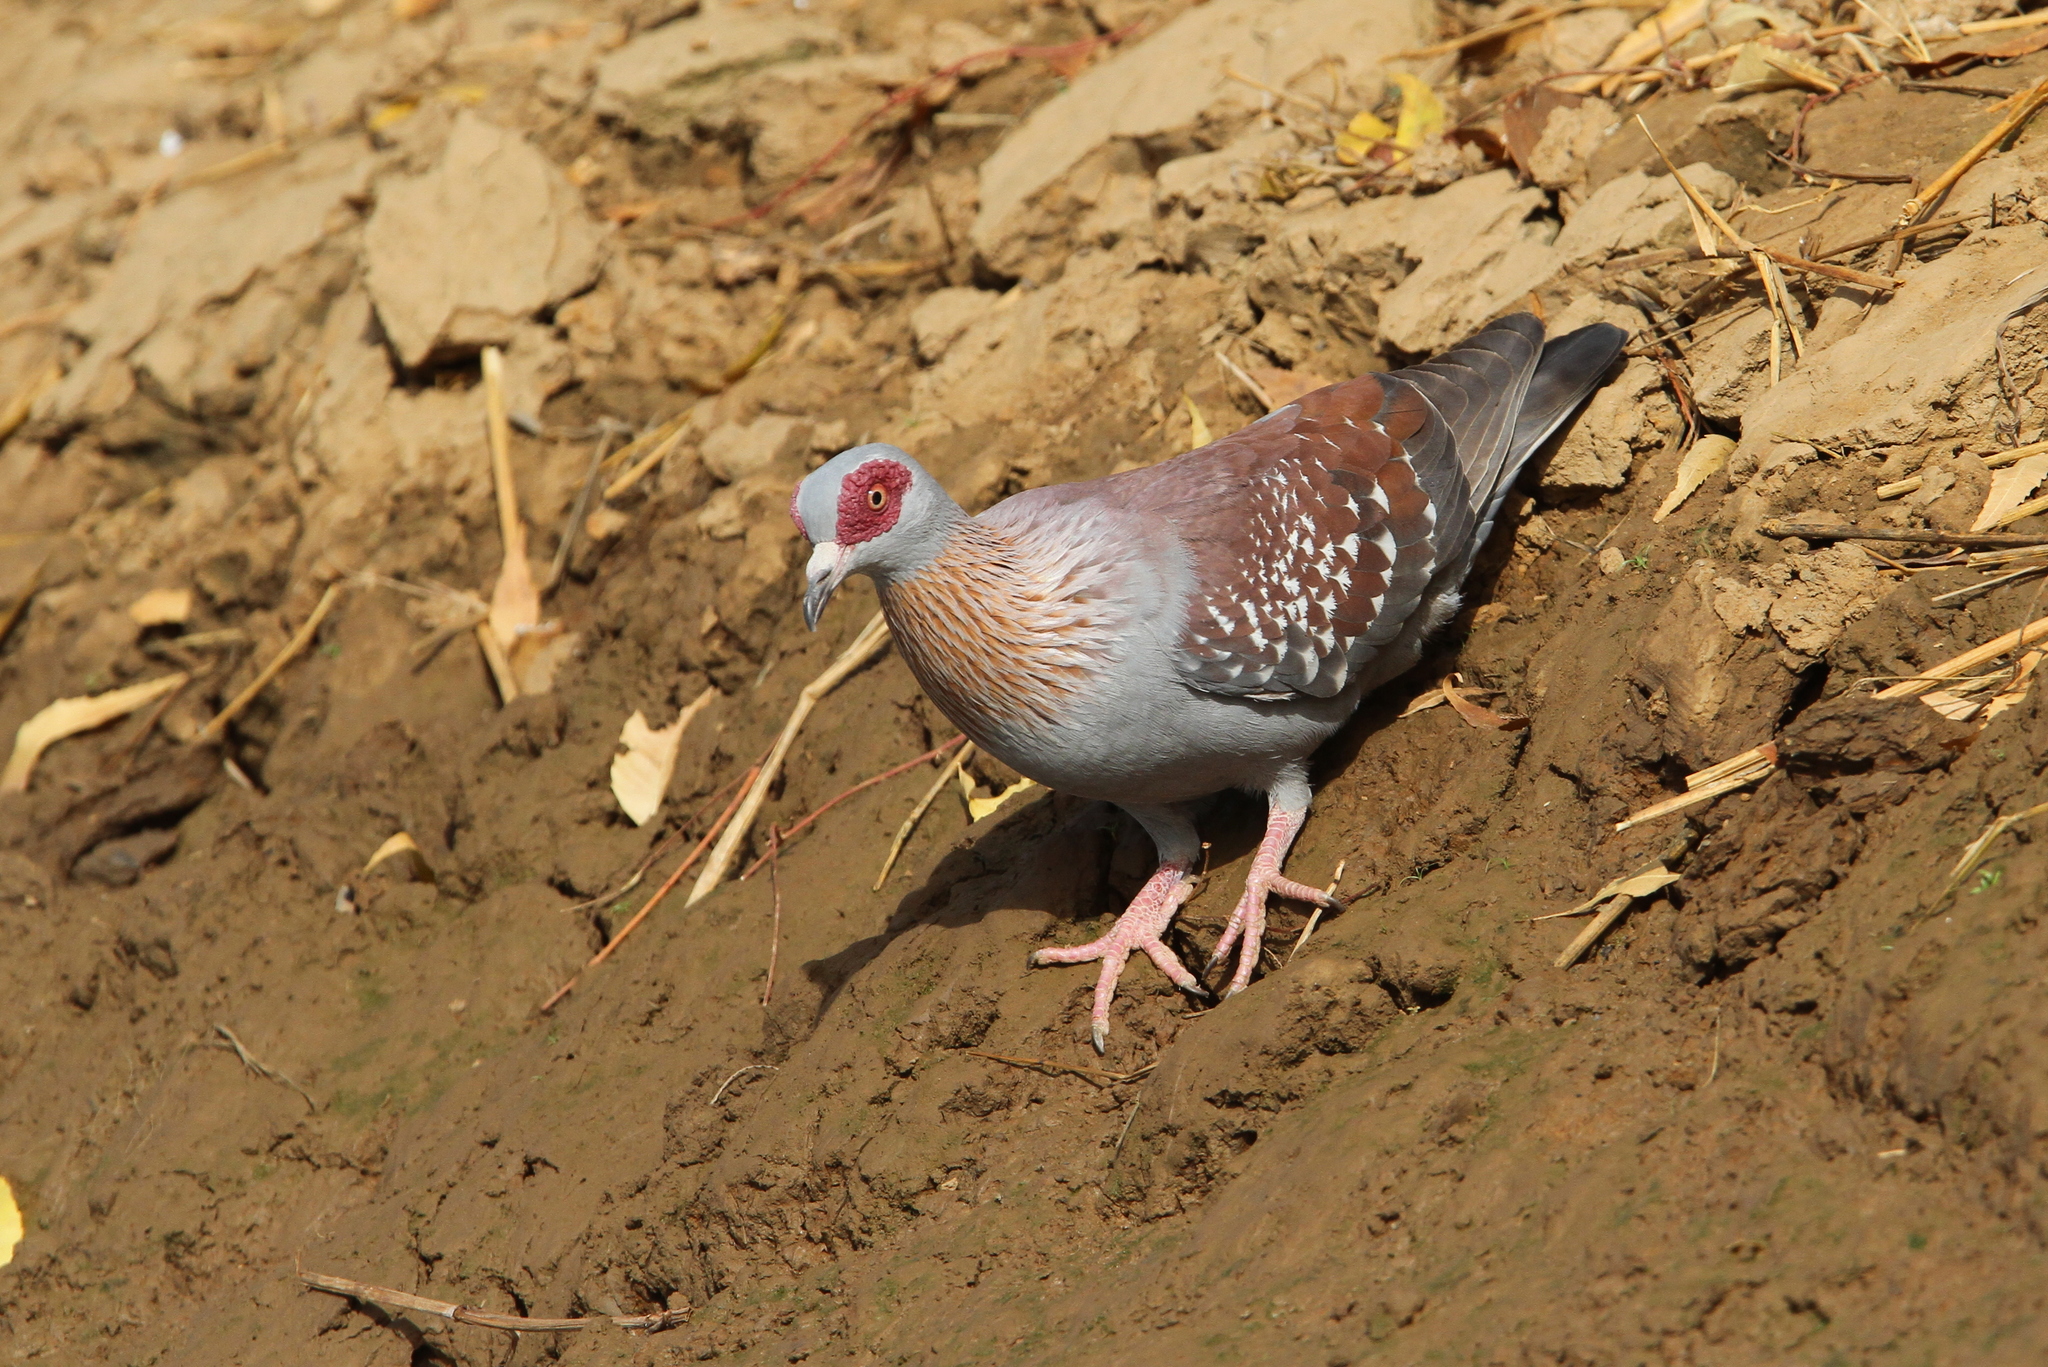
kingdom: Animalia
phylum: Chordata
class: Aves
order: Columbiformes
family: Columbidae
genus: Columba
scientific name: Columba guinea
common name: Speckled pigeon
